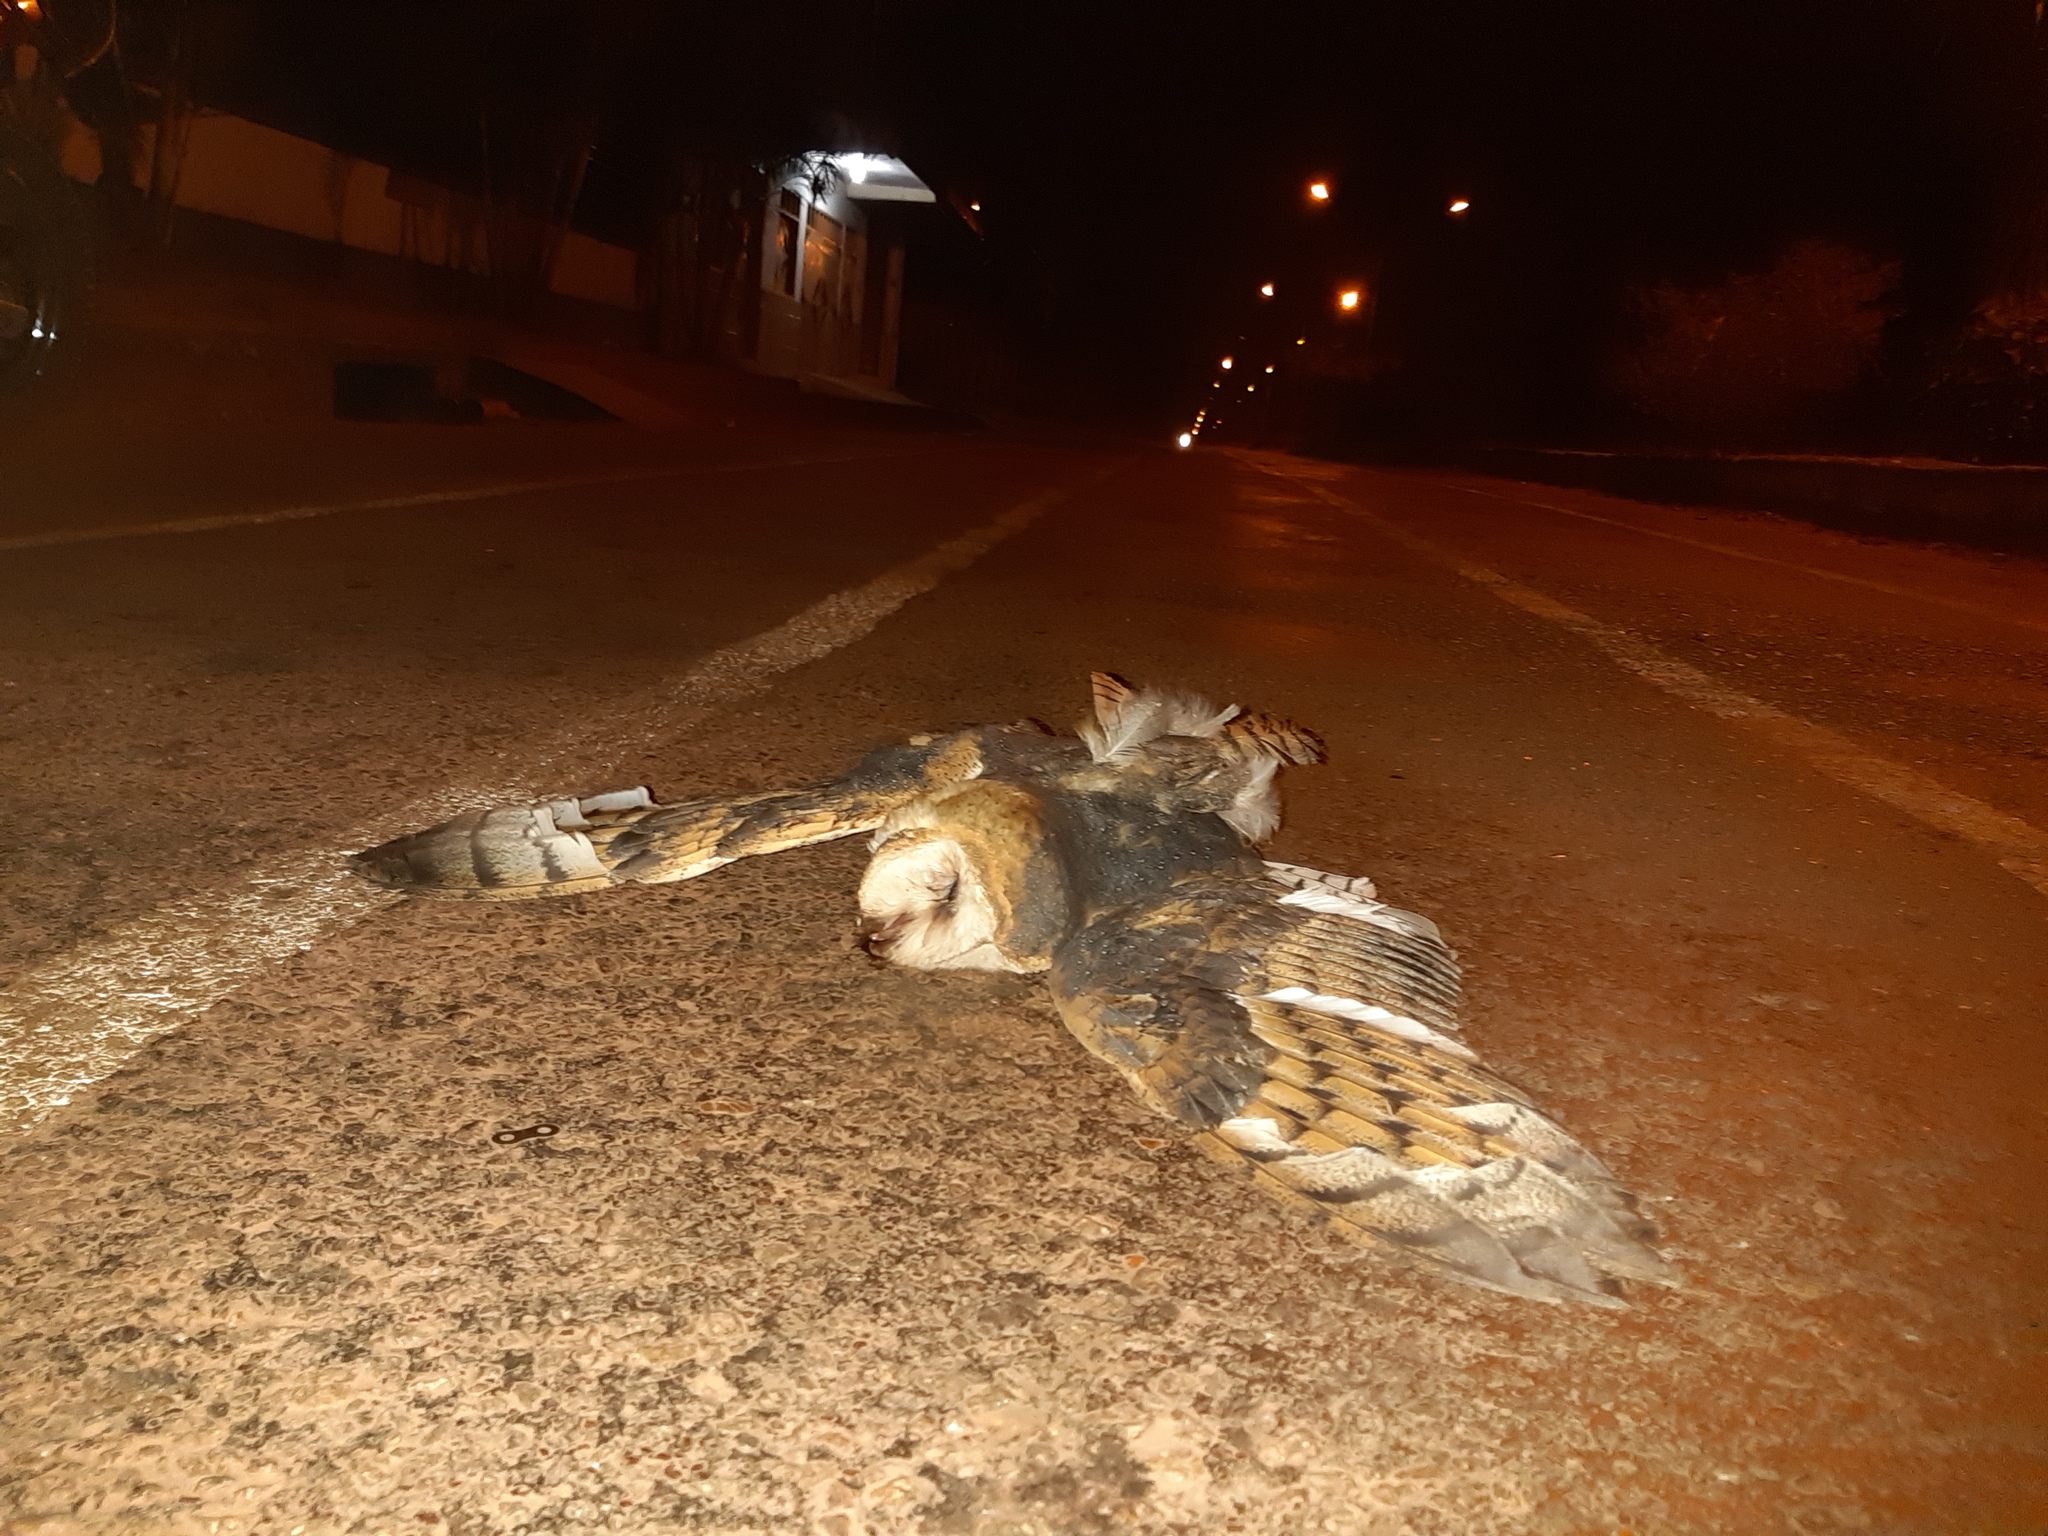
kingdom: Animalia
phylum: Chordata
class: Aves
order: Strigiformes
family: Tytonidae
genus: Tyto
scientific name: Tyto alba
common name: Barn owl
